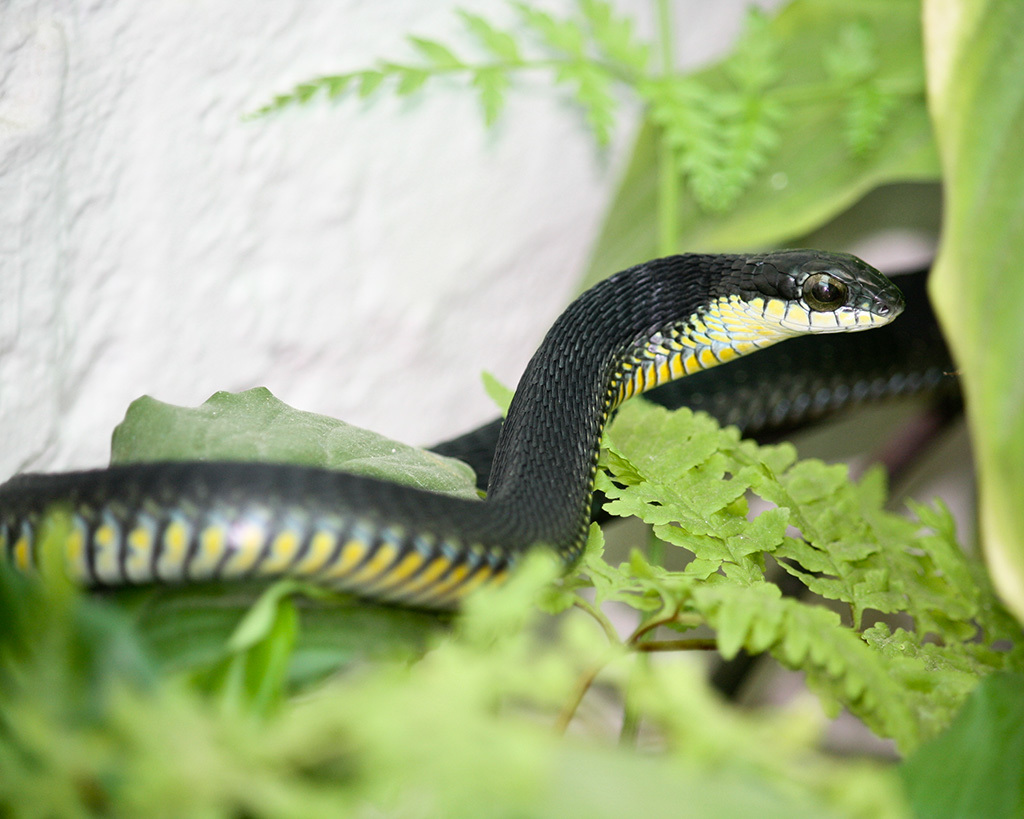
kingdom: Animalia
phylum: Chordata
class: Squamata
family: Colubridae
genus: Dispholidus
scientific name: Dispholidus typus
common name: Boomslang
